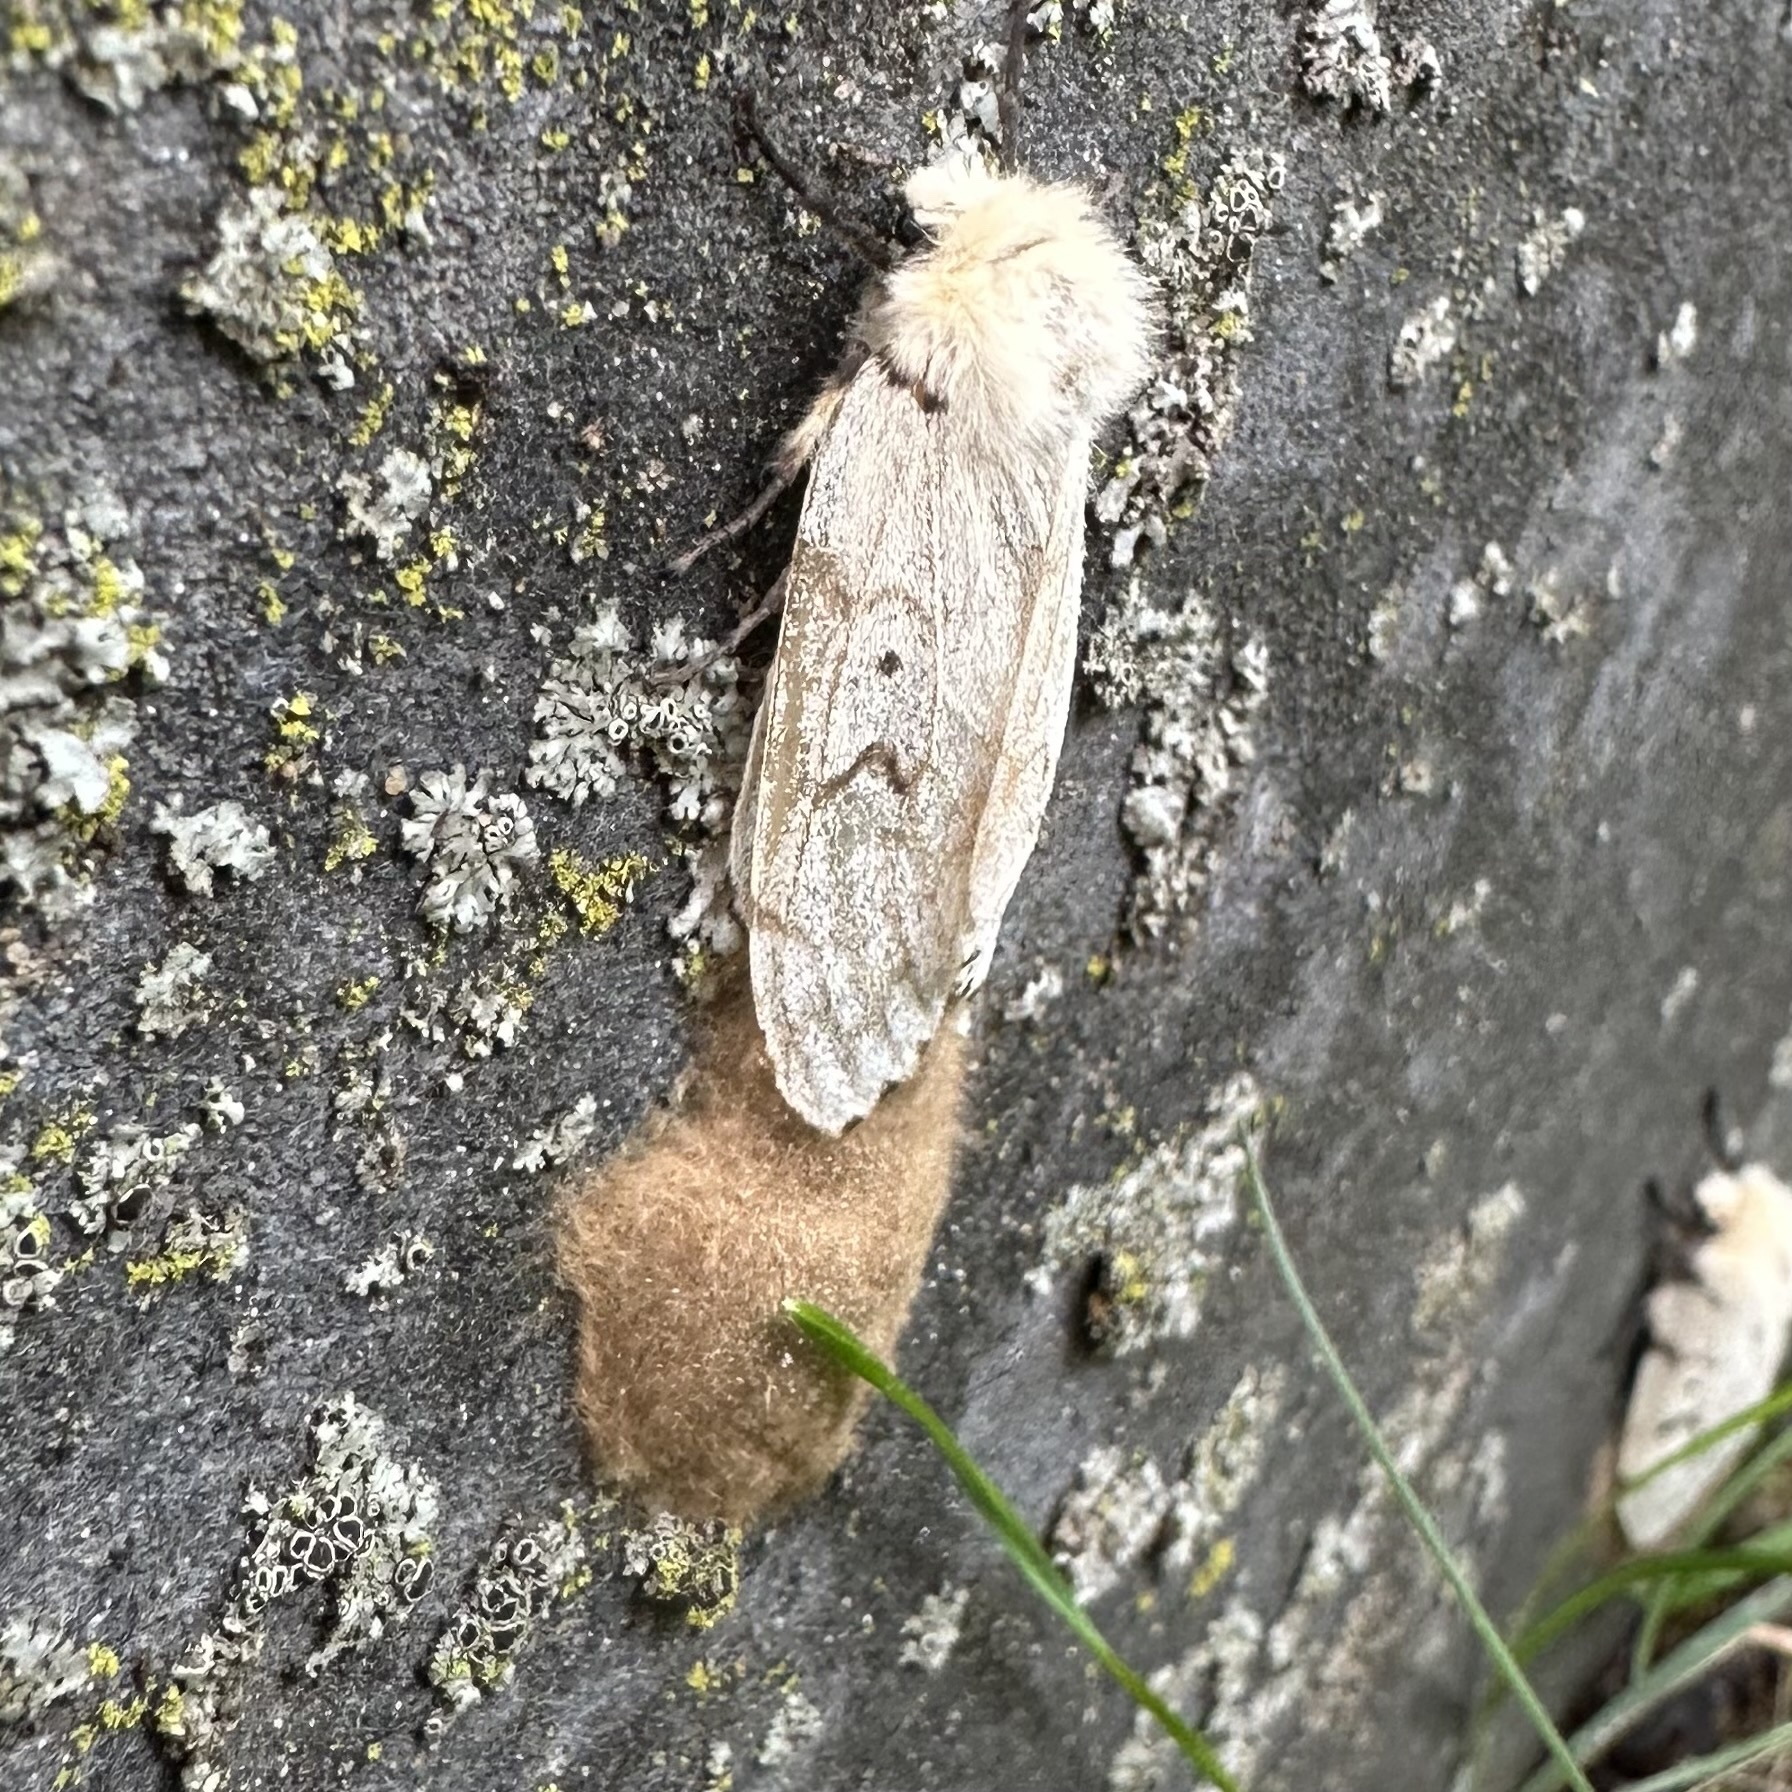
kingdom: Animalia
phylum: Arthropoda
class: Insecta
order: Lepidoptera
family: Erebidae
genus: Lymantria
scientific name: Lymantria dispar
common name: Gypsy moth
